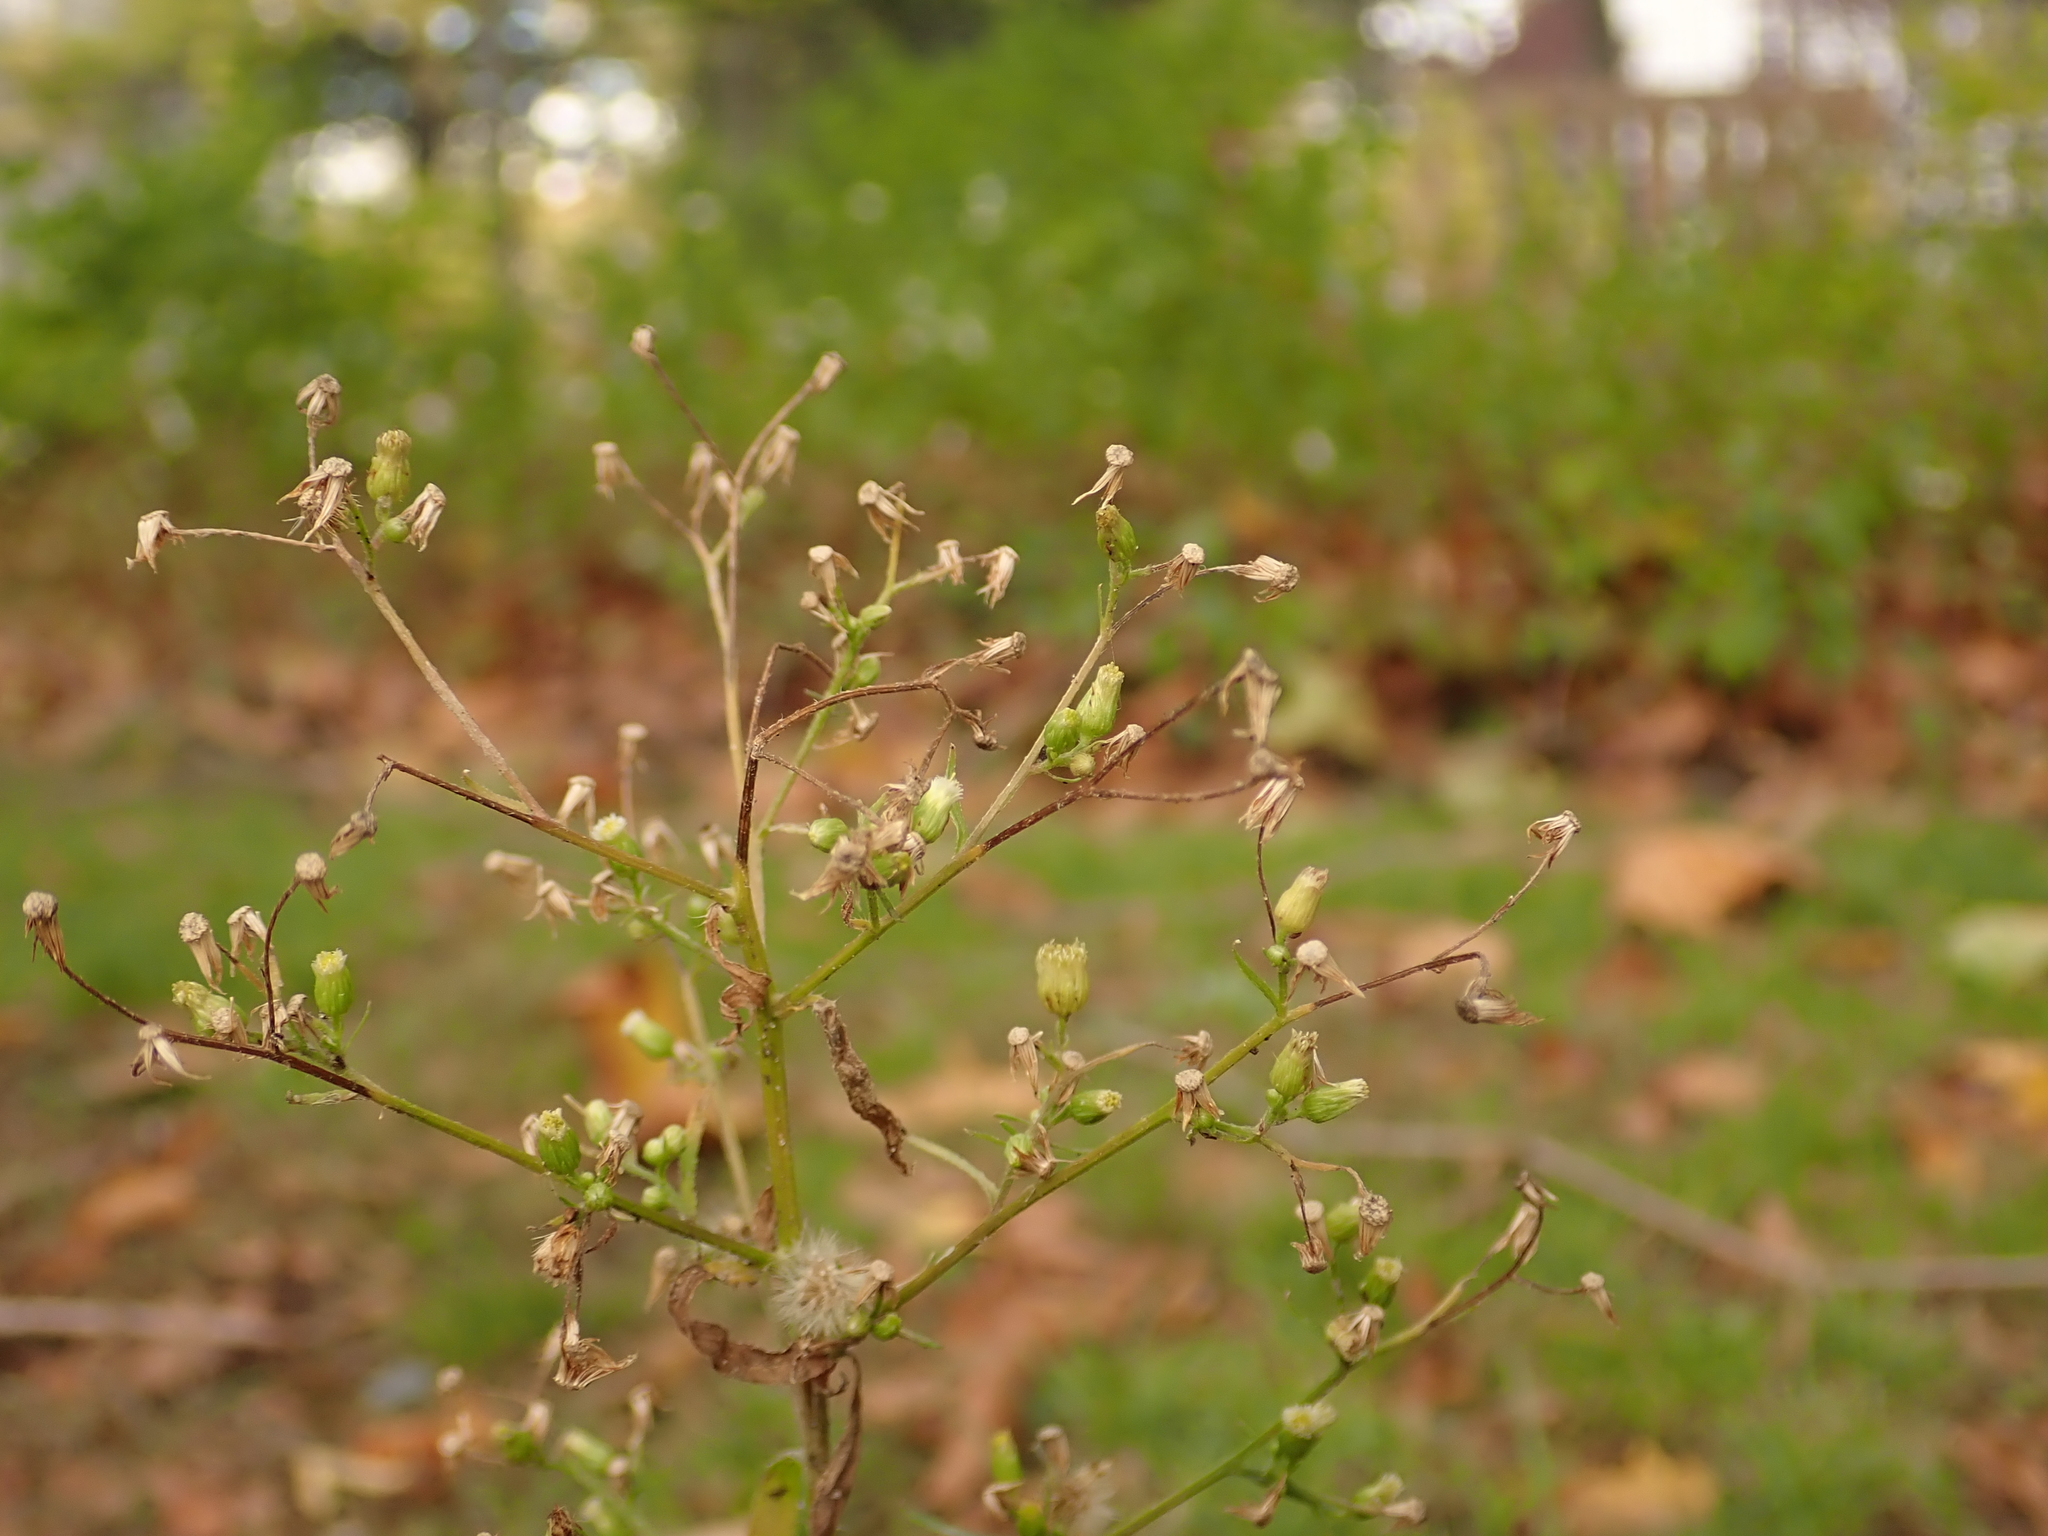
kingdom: Plantae
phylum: Tracheophyta
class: Magnoliopsida
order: Asterales
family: Asteraceae
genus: Erigeron
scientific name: Erigeron canadensis
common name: Canadian fleabane
